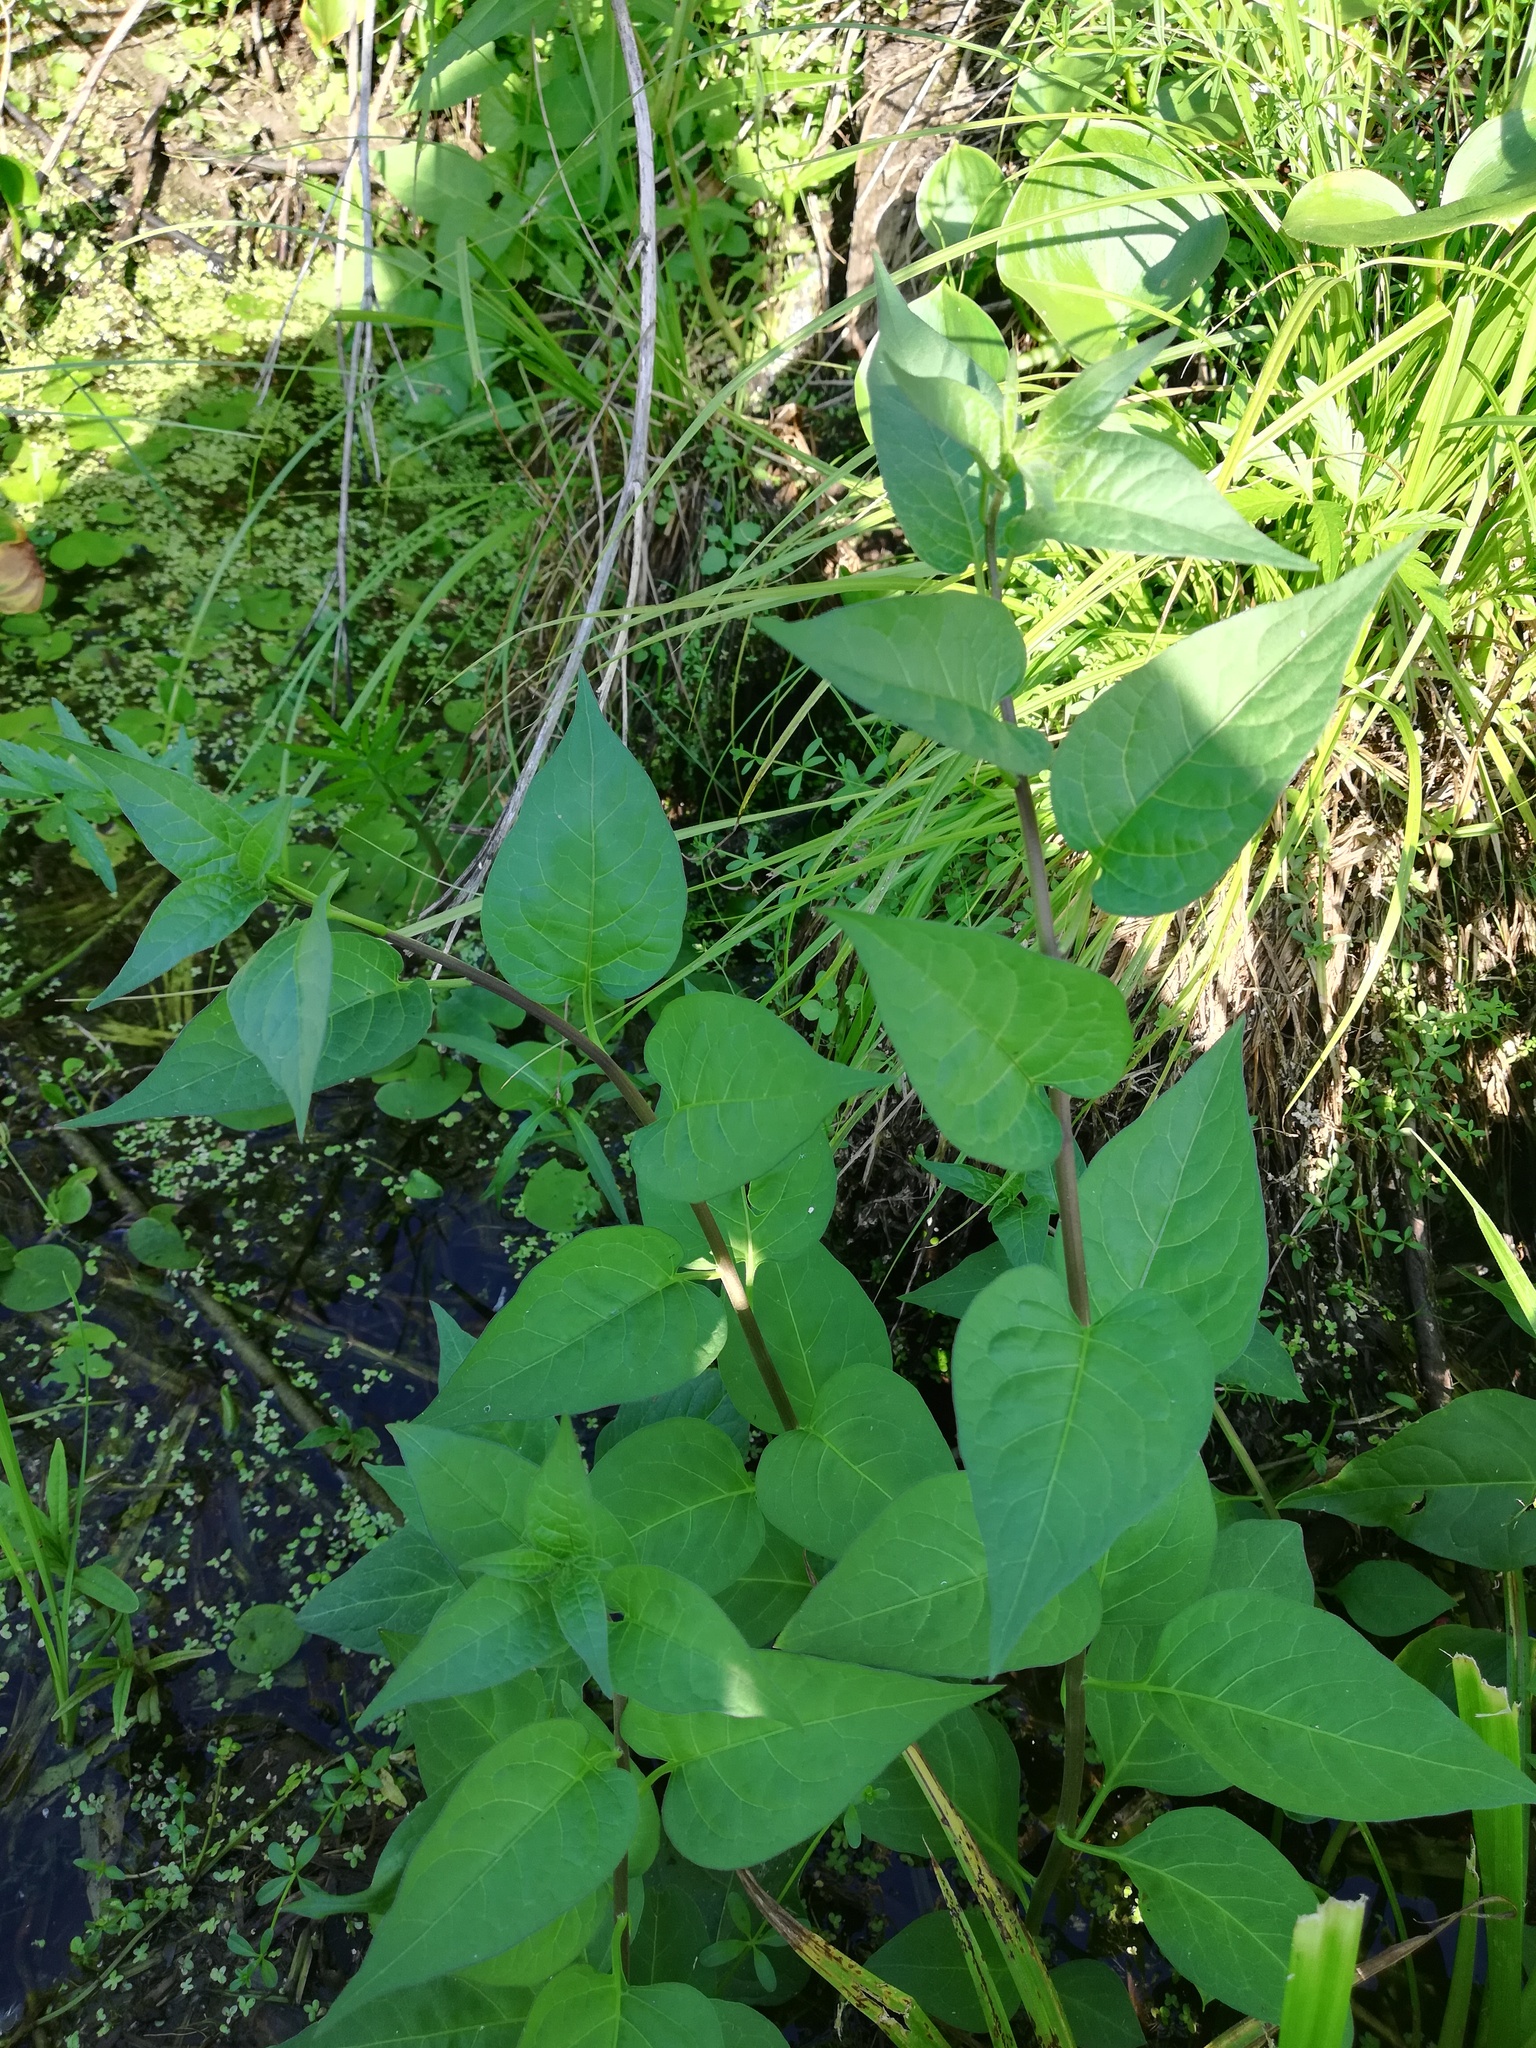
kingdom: Plantae
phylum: Tracheophyta
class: Magnoliopsida
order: Solanales
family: Solanaceae
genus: Solanum
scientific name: Solanum dulcamara
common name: Climbing nightshade
